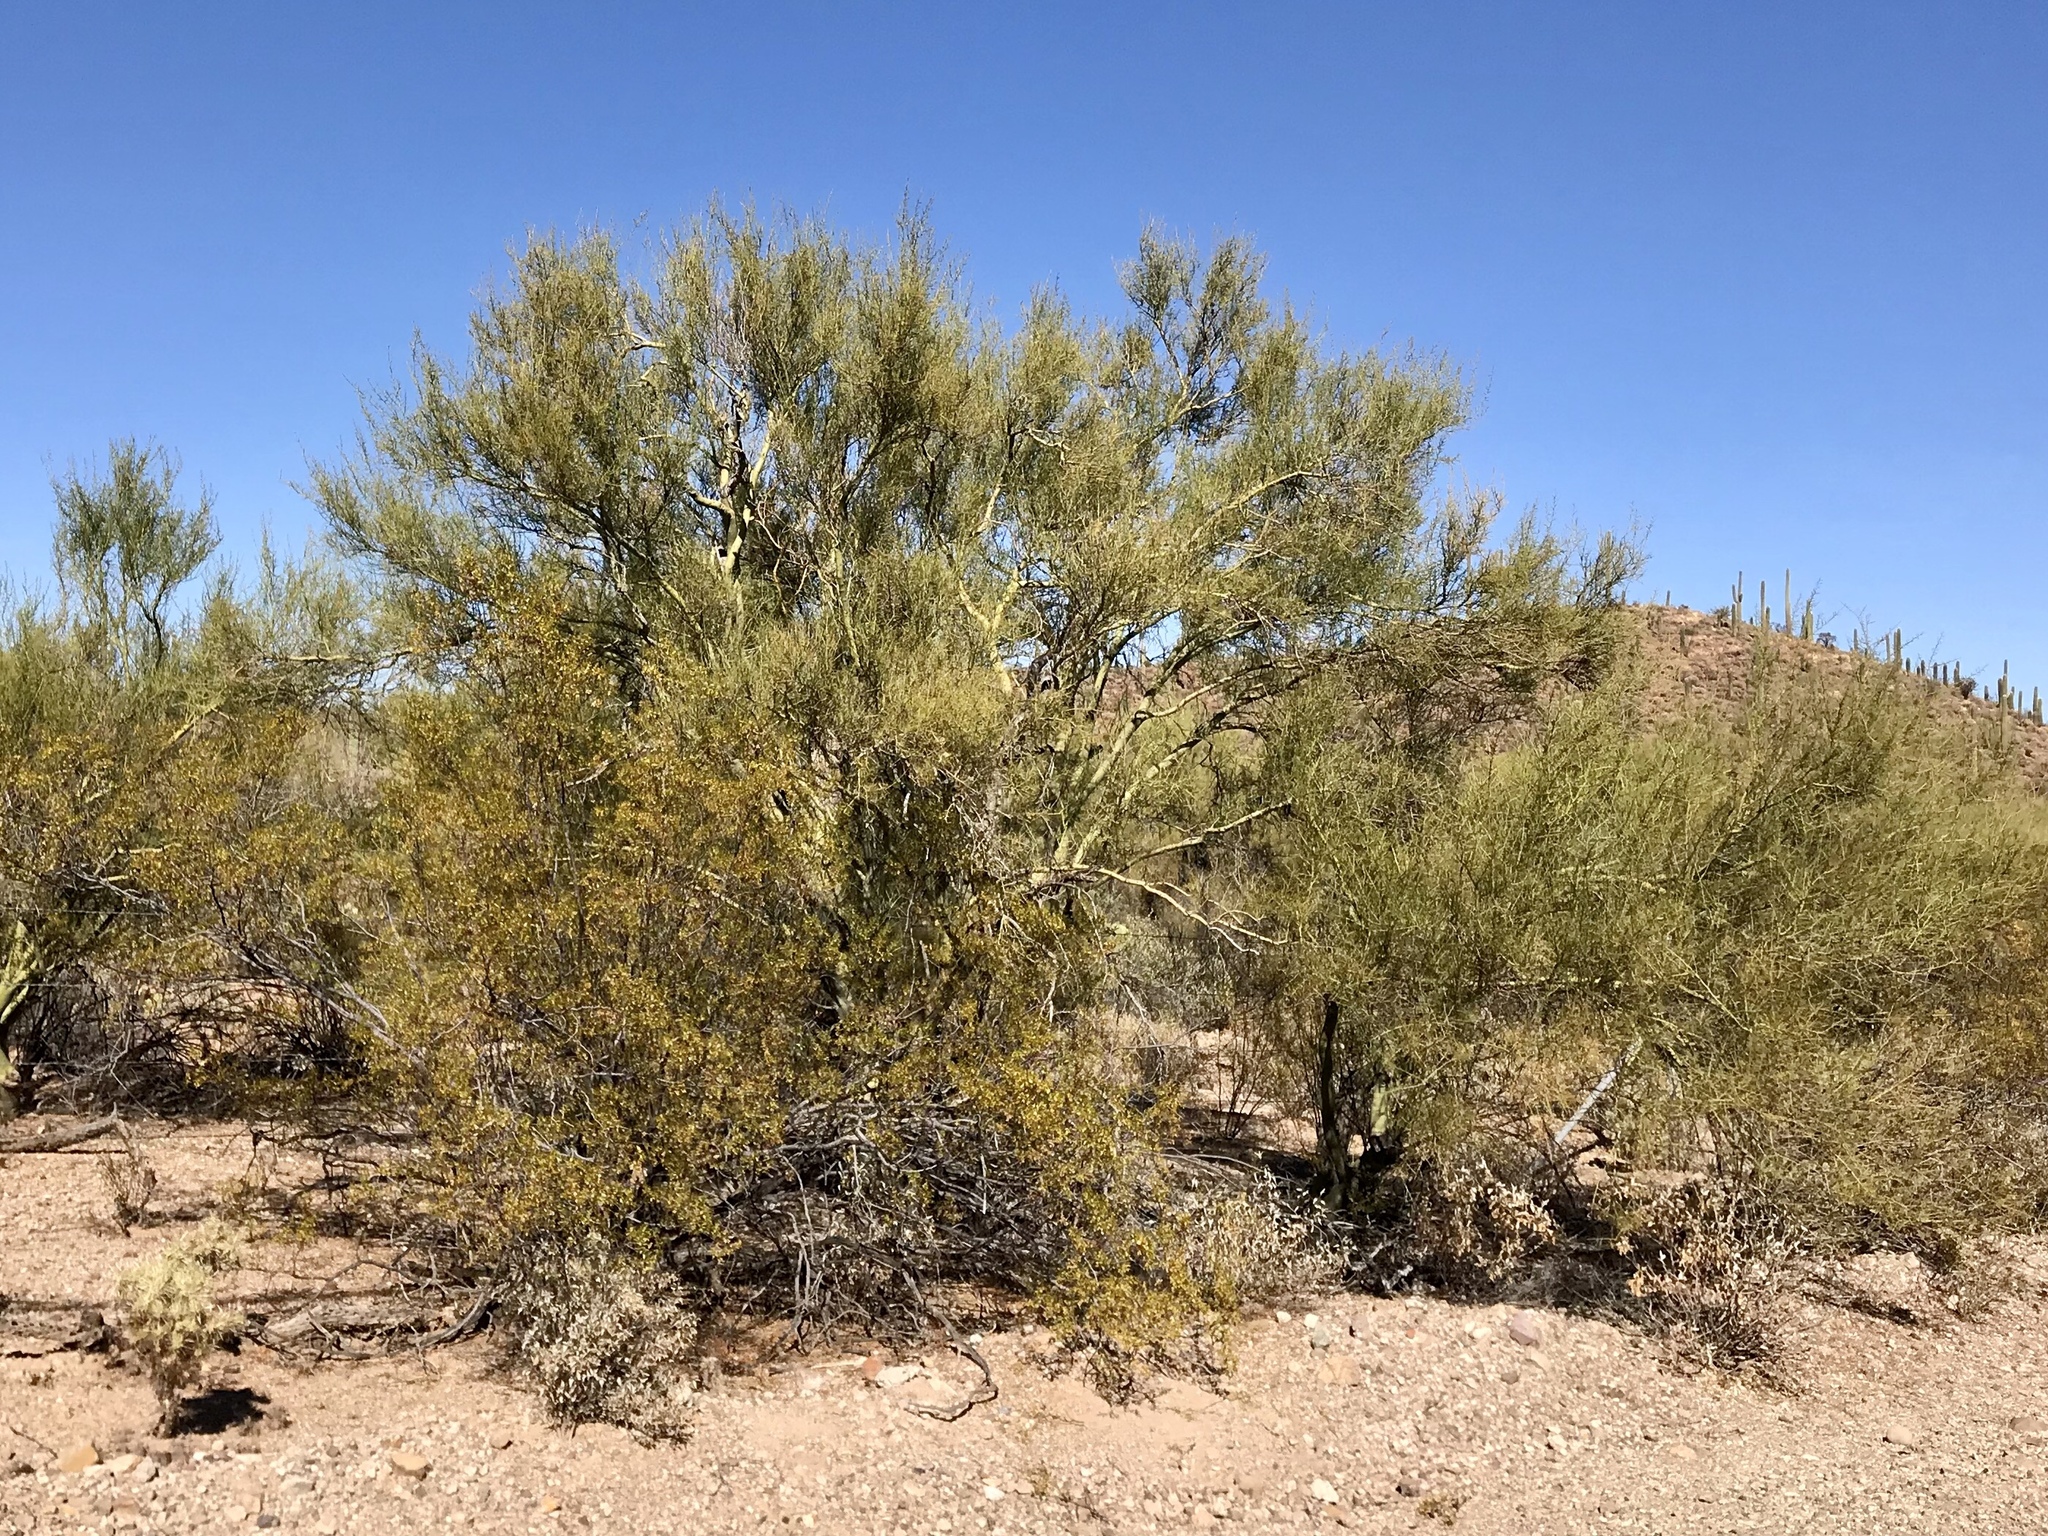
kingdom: Plantae
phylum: Tracheophyta
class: Magnoliopsida
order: Fabales
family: Fabaceae
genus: Parkinsonia
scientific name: Parkinsonia florida
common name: Blue paloverde
